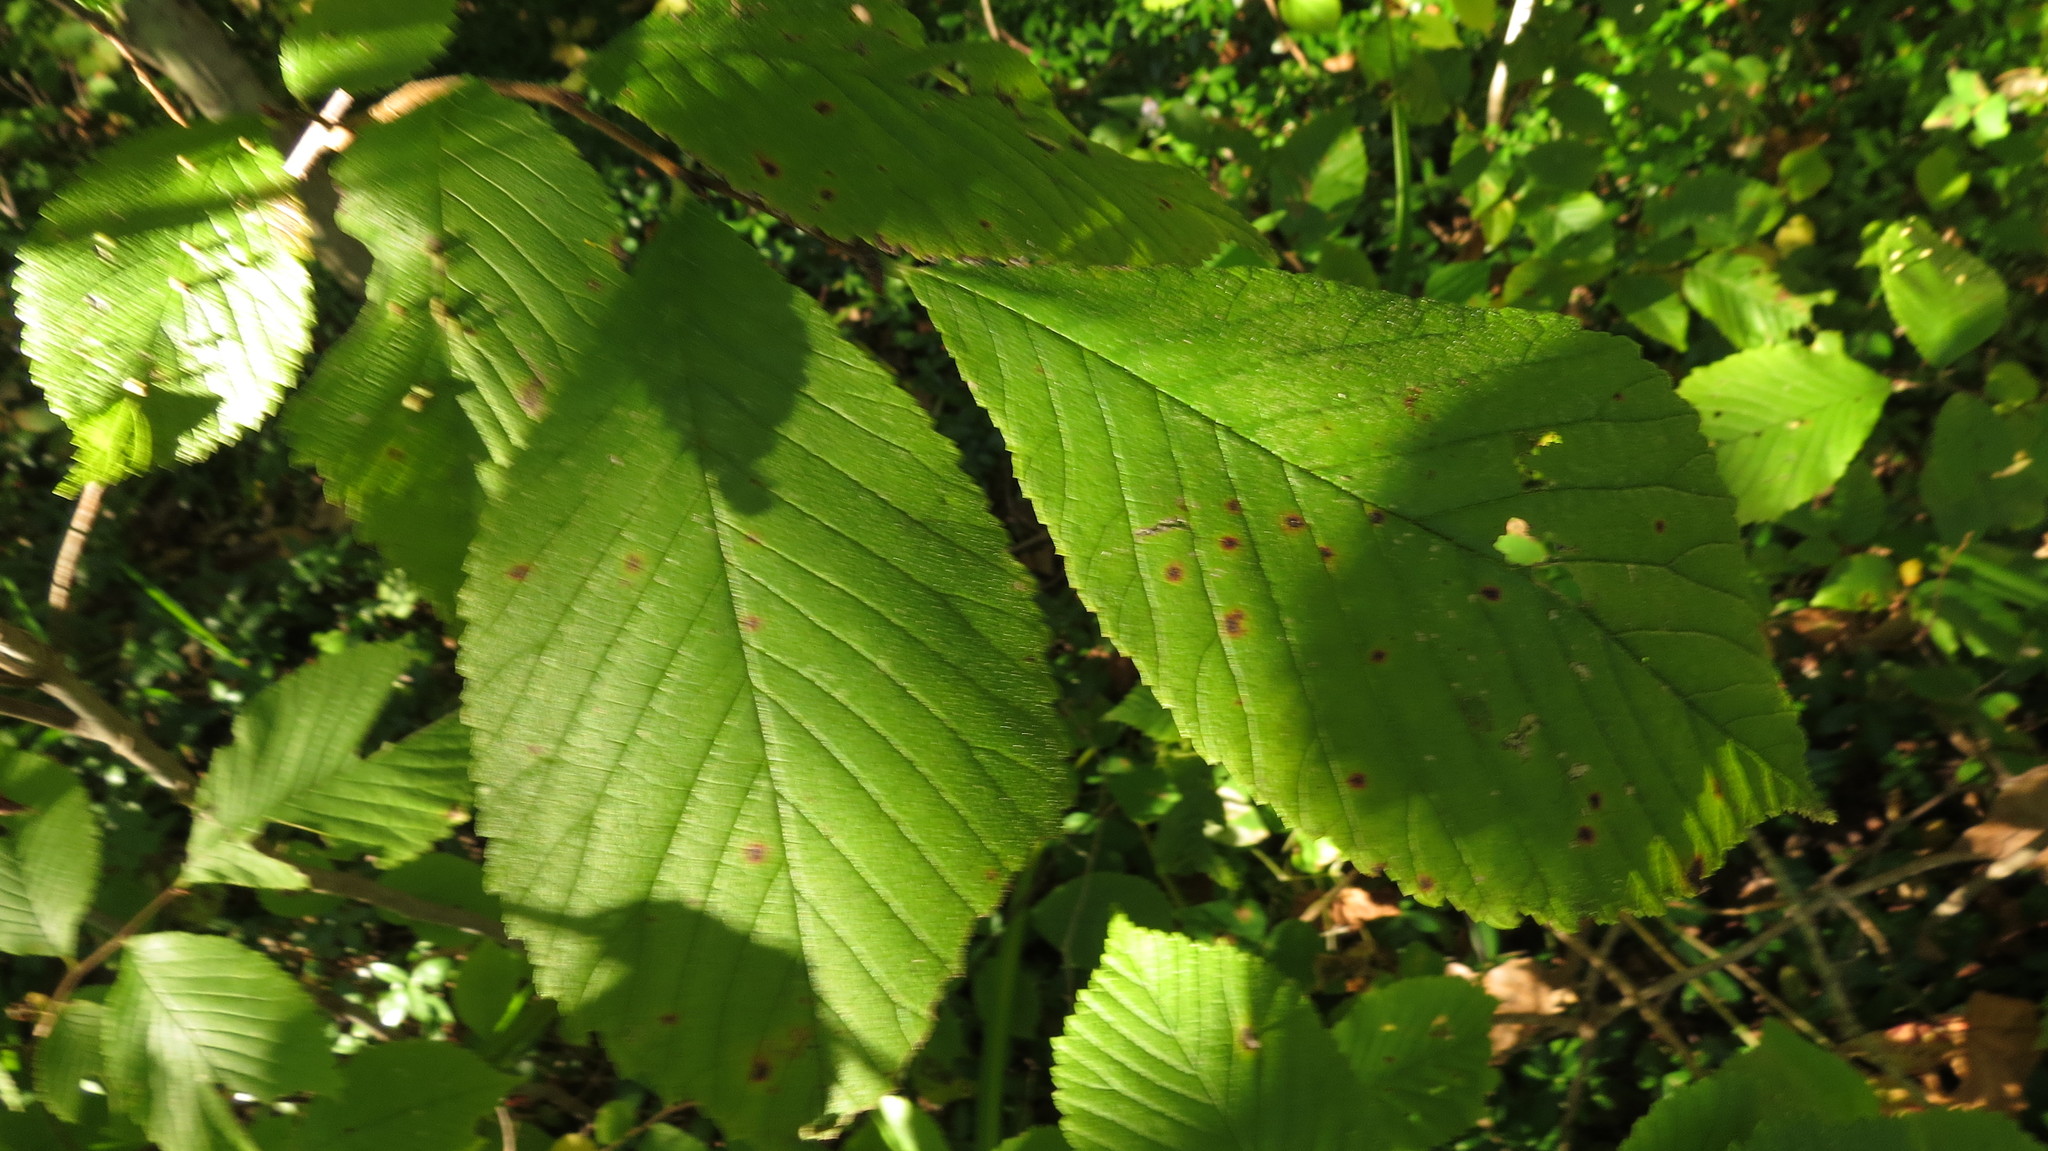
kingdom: Plantae
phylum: Tracheophyta
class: Magnoliopsida
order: Rosales
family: Ulmaceae
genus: Ulmus
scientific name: Ulmus rubra
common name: Slippery elm
